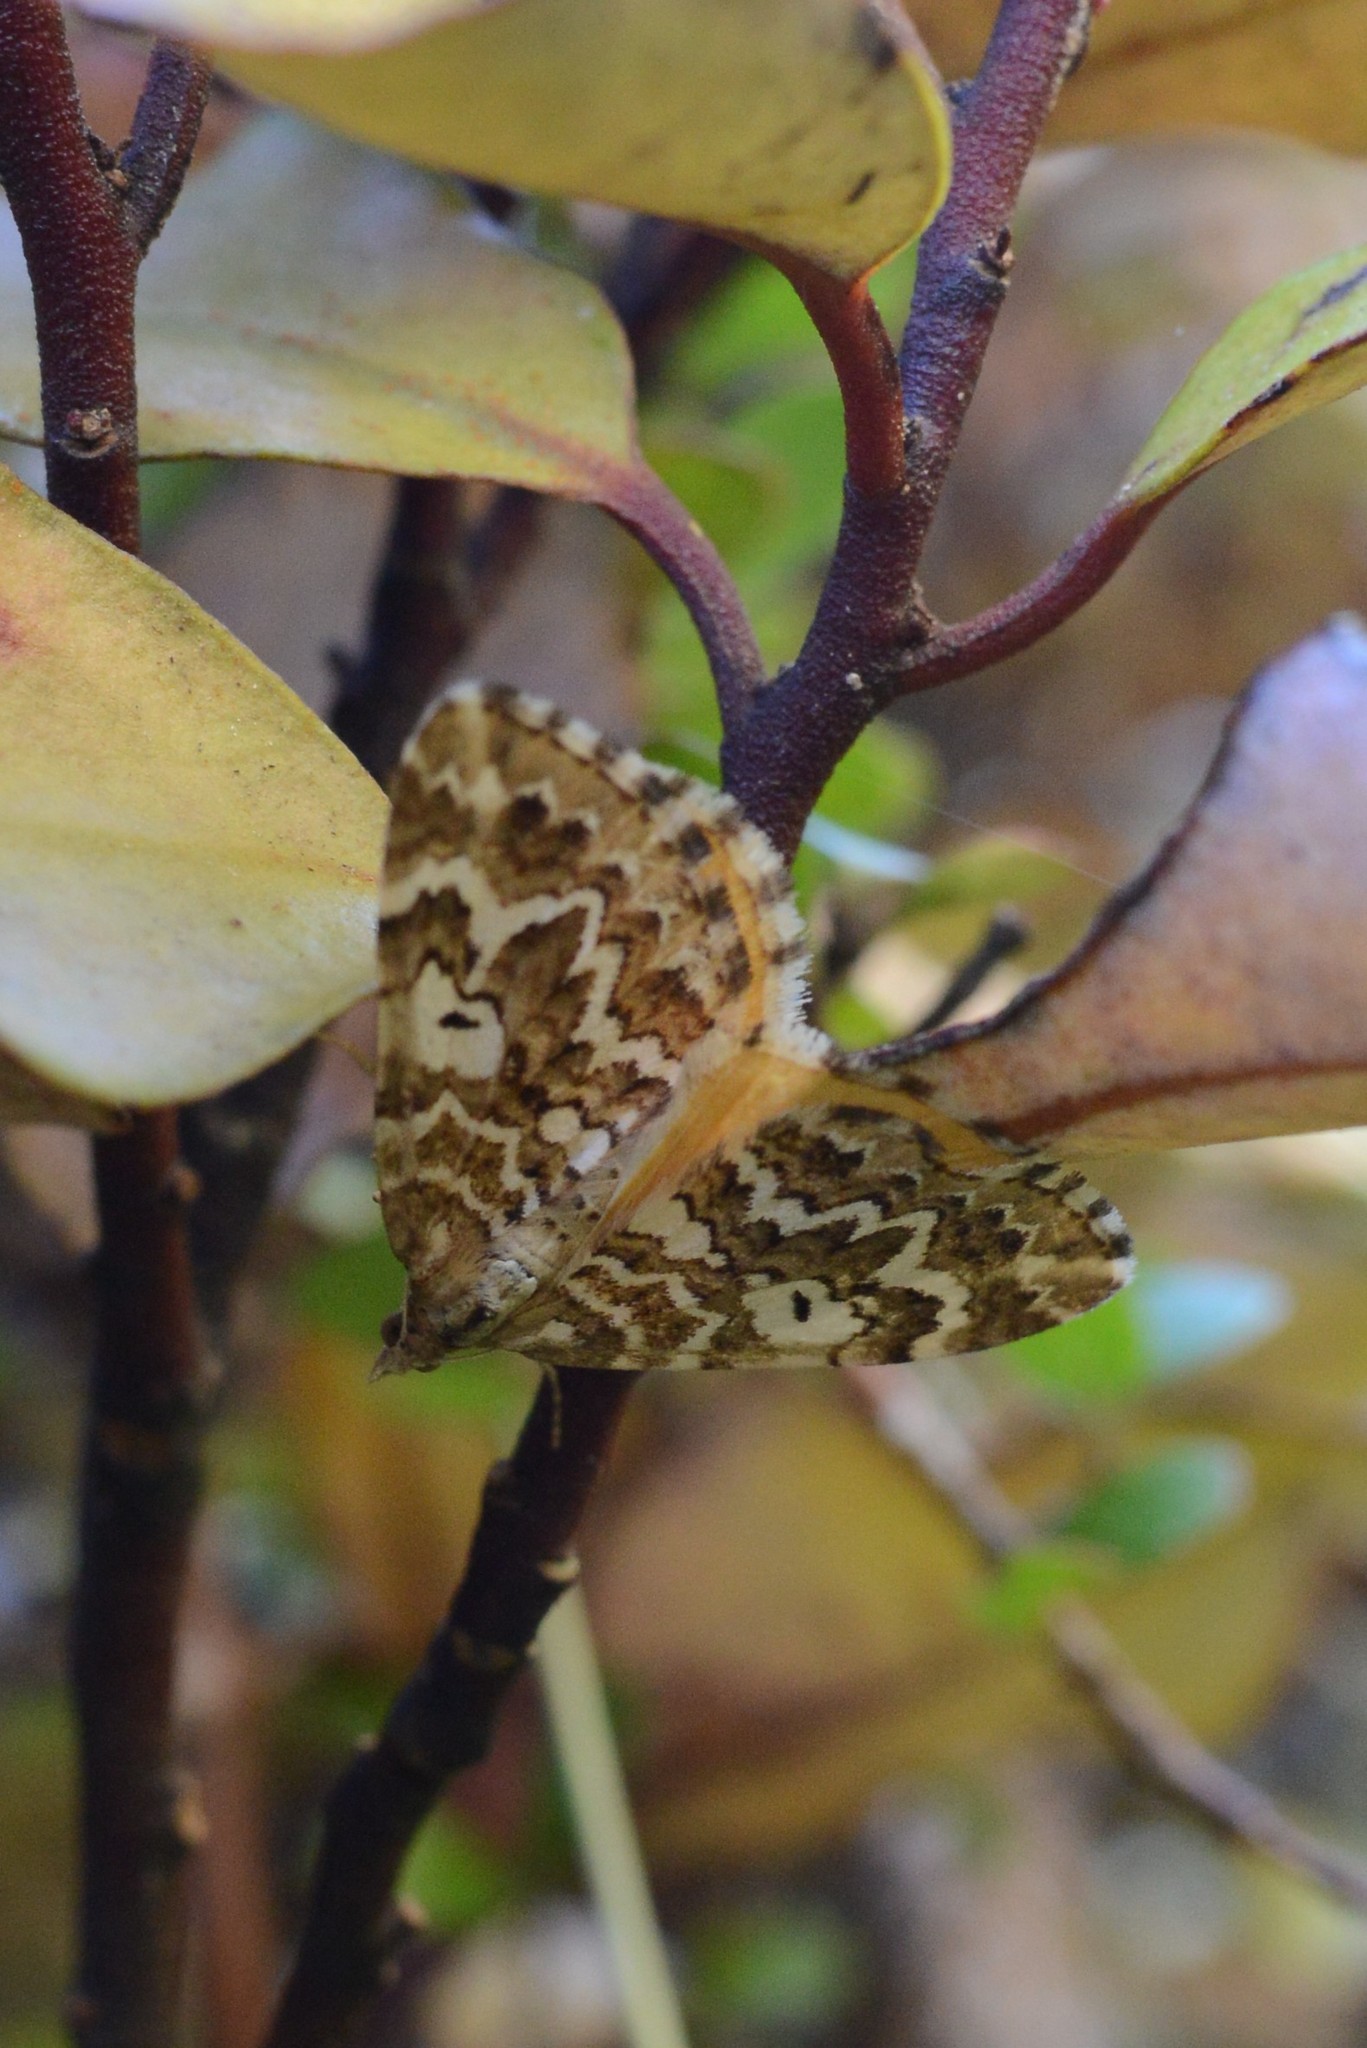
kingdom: Animalia
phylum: Arthropoda
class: Insecta
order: Lepidoptera
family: Geometridae
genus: Asaphodes
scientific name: Asaphodes clarata
